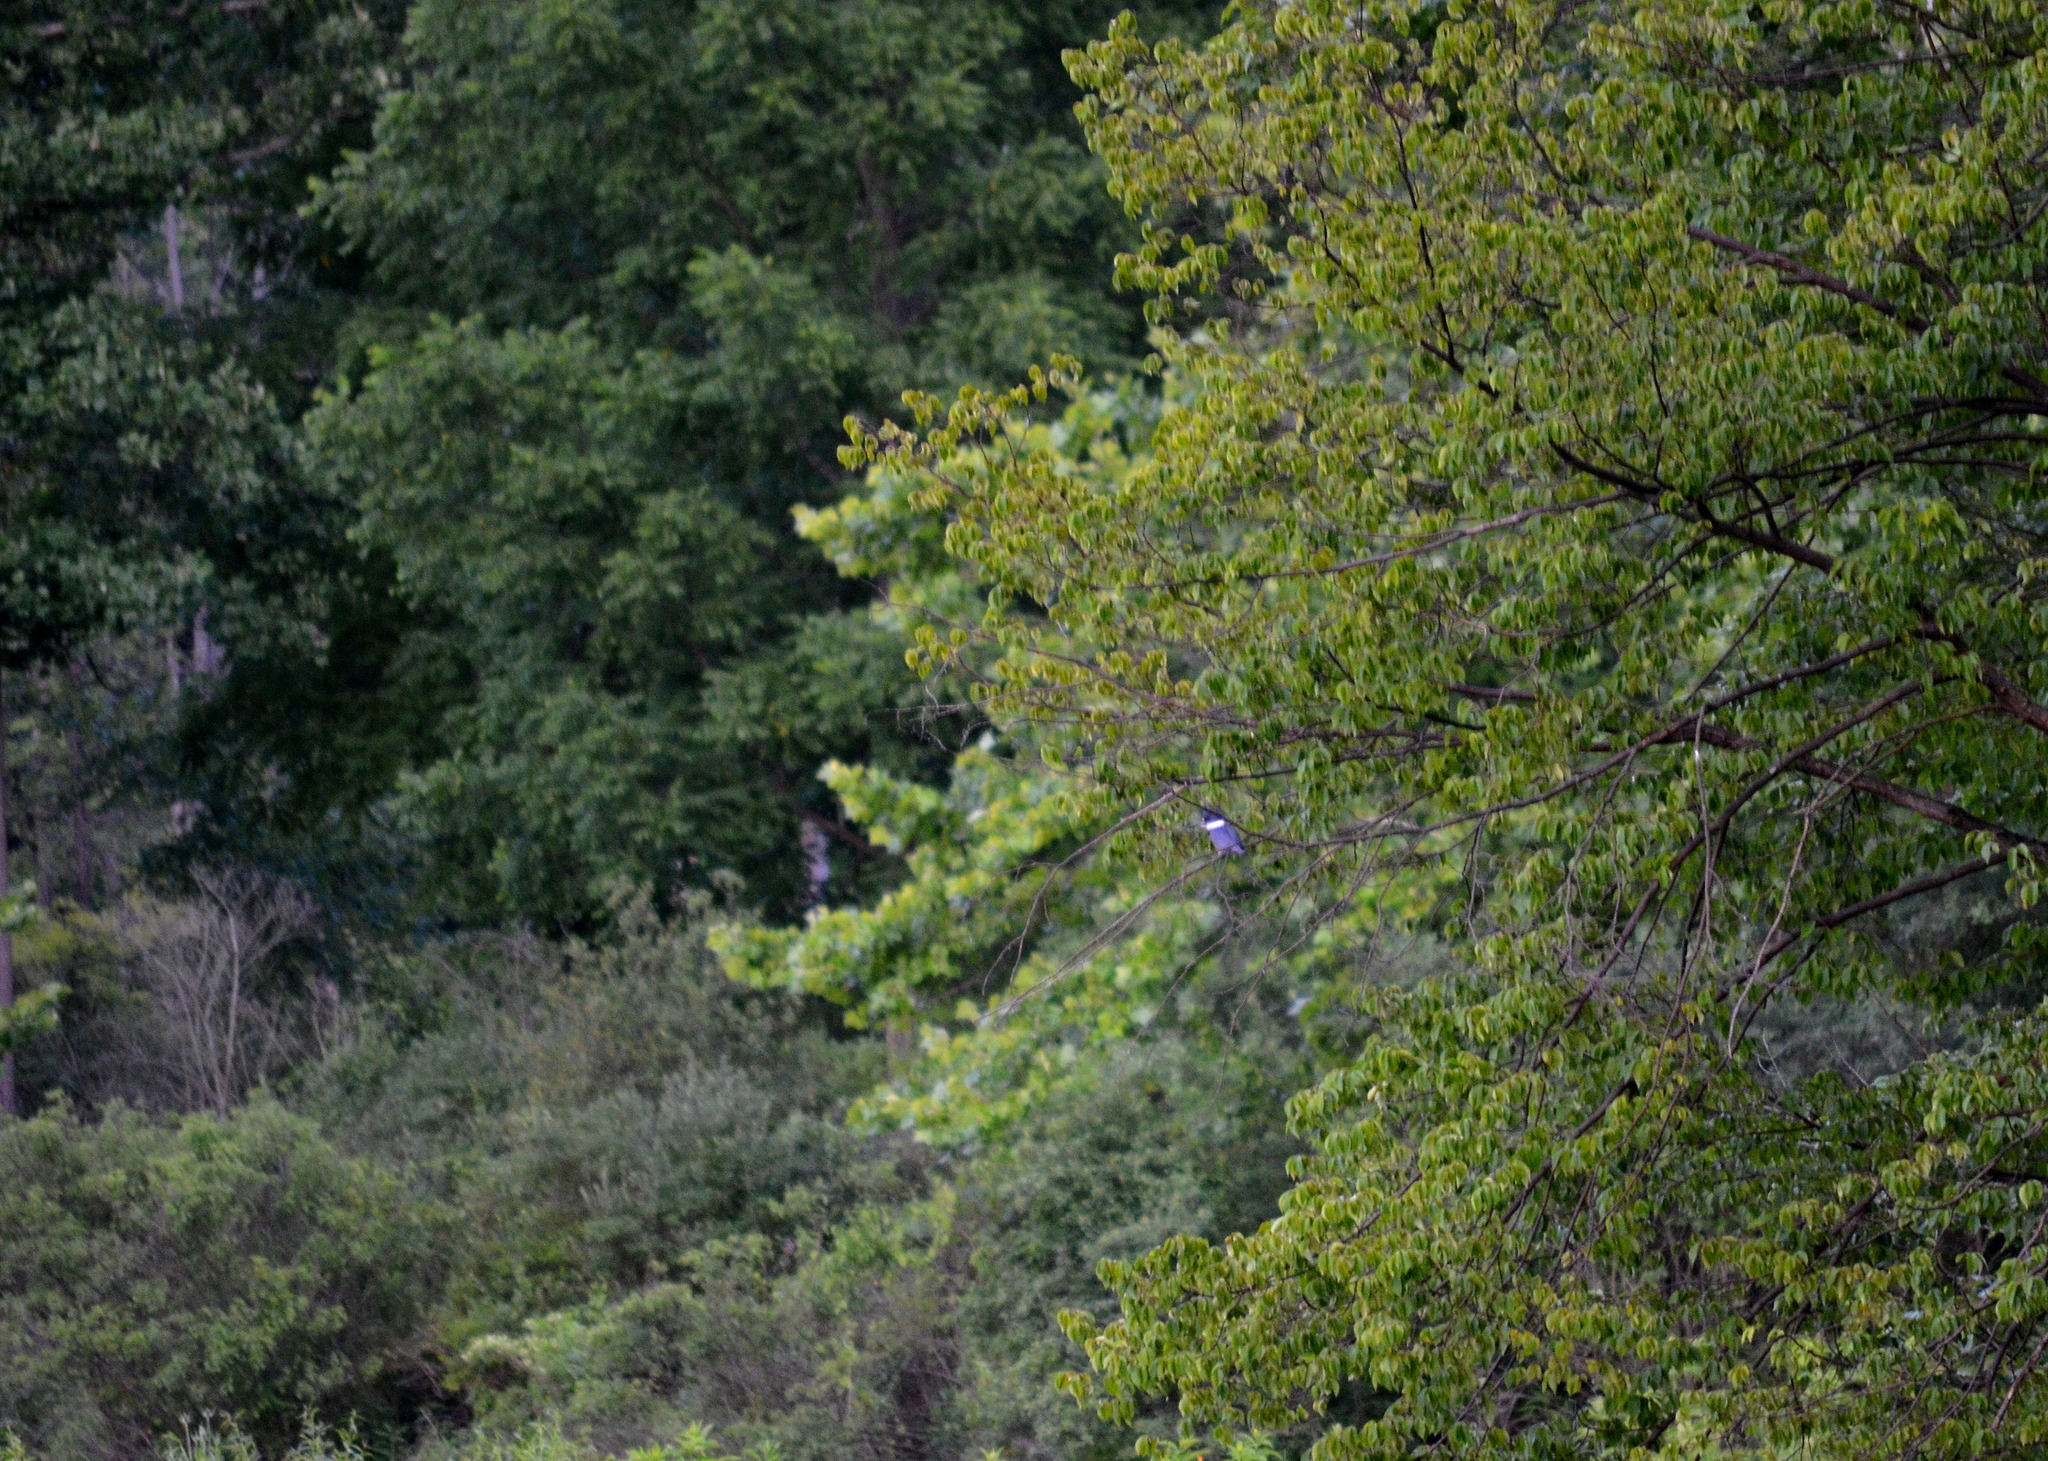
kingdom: Animalia
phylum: Chordata
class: Aves
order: Coraciiformes
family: Alcedinidae
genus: Megaceryle
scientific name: Megaceryle alcyon
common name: Belted kingfisher
